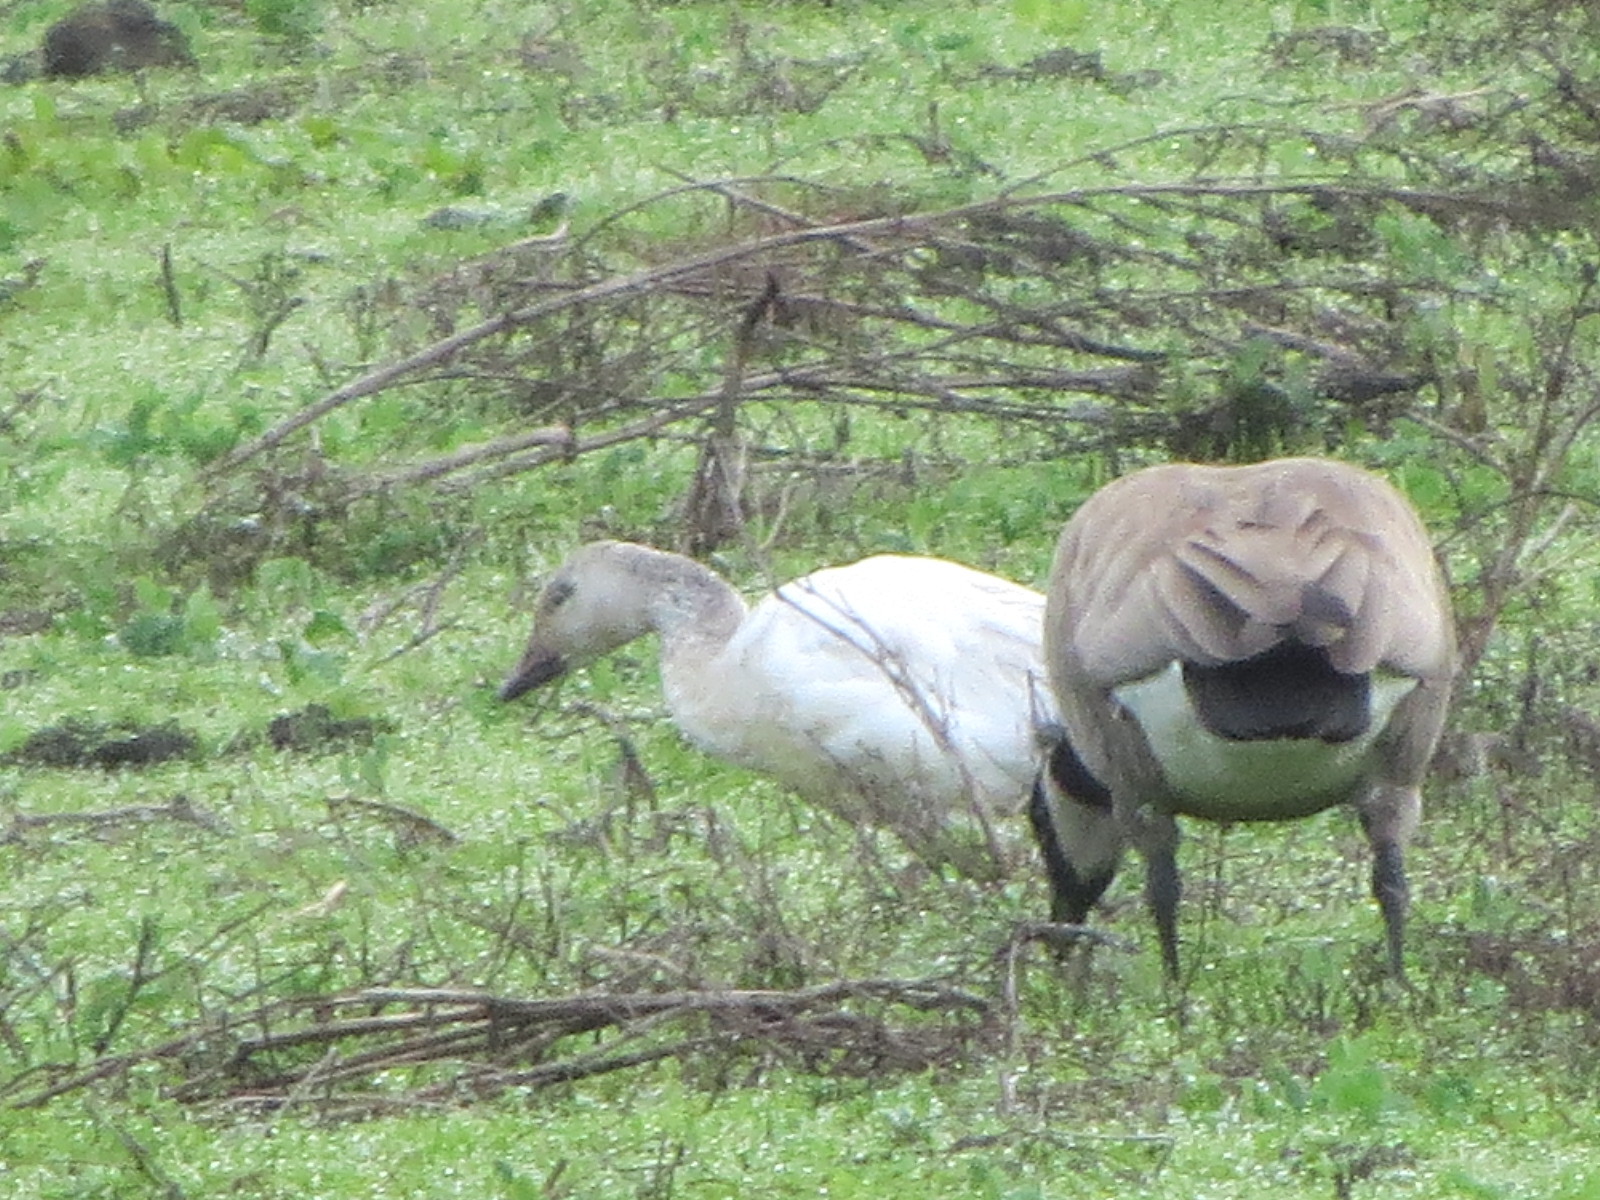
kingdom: Animalia
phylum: Chordata
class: Aves
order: Anseriformes
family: Anatidae
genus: Anser
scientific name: Anser caerulescens
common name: Snow goose
